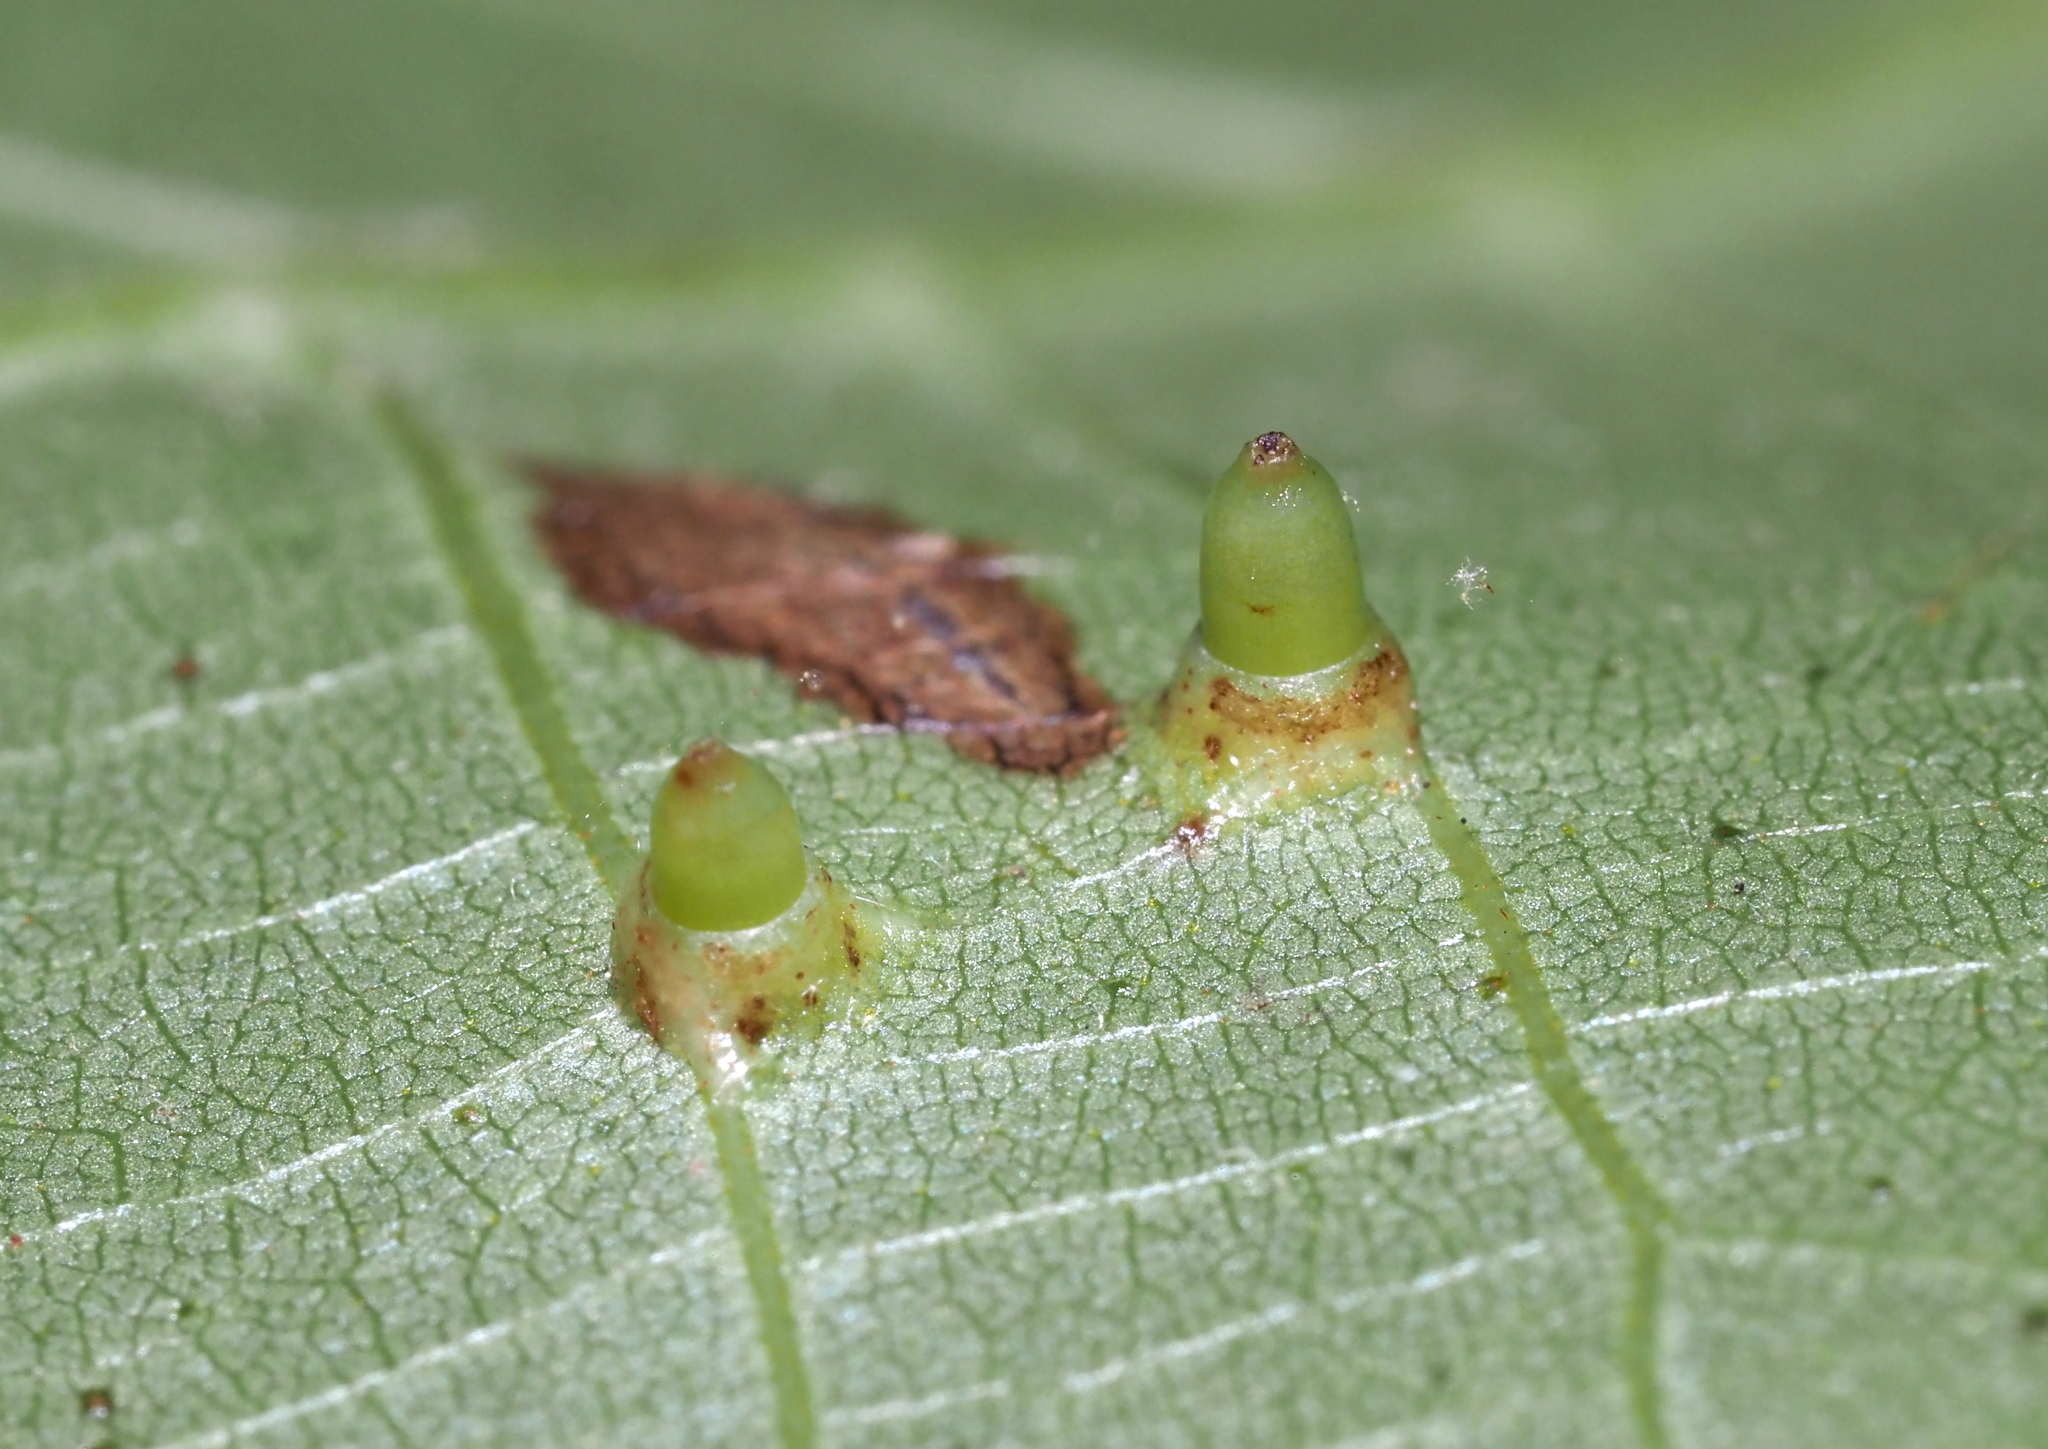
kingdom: Animalia
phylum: Arthropoda
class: Insecta
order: Diptera
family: Cecidomyiidae
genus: Caryomyia
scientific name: Caryomyia tubicola
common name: Hickory bullet gall midge
